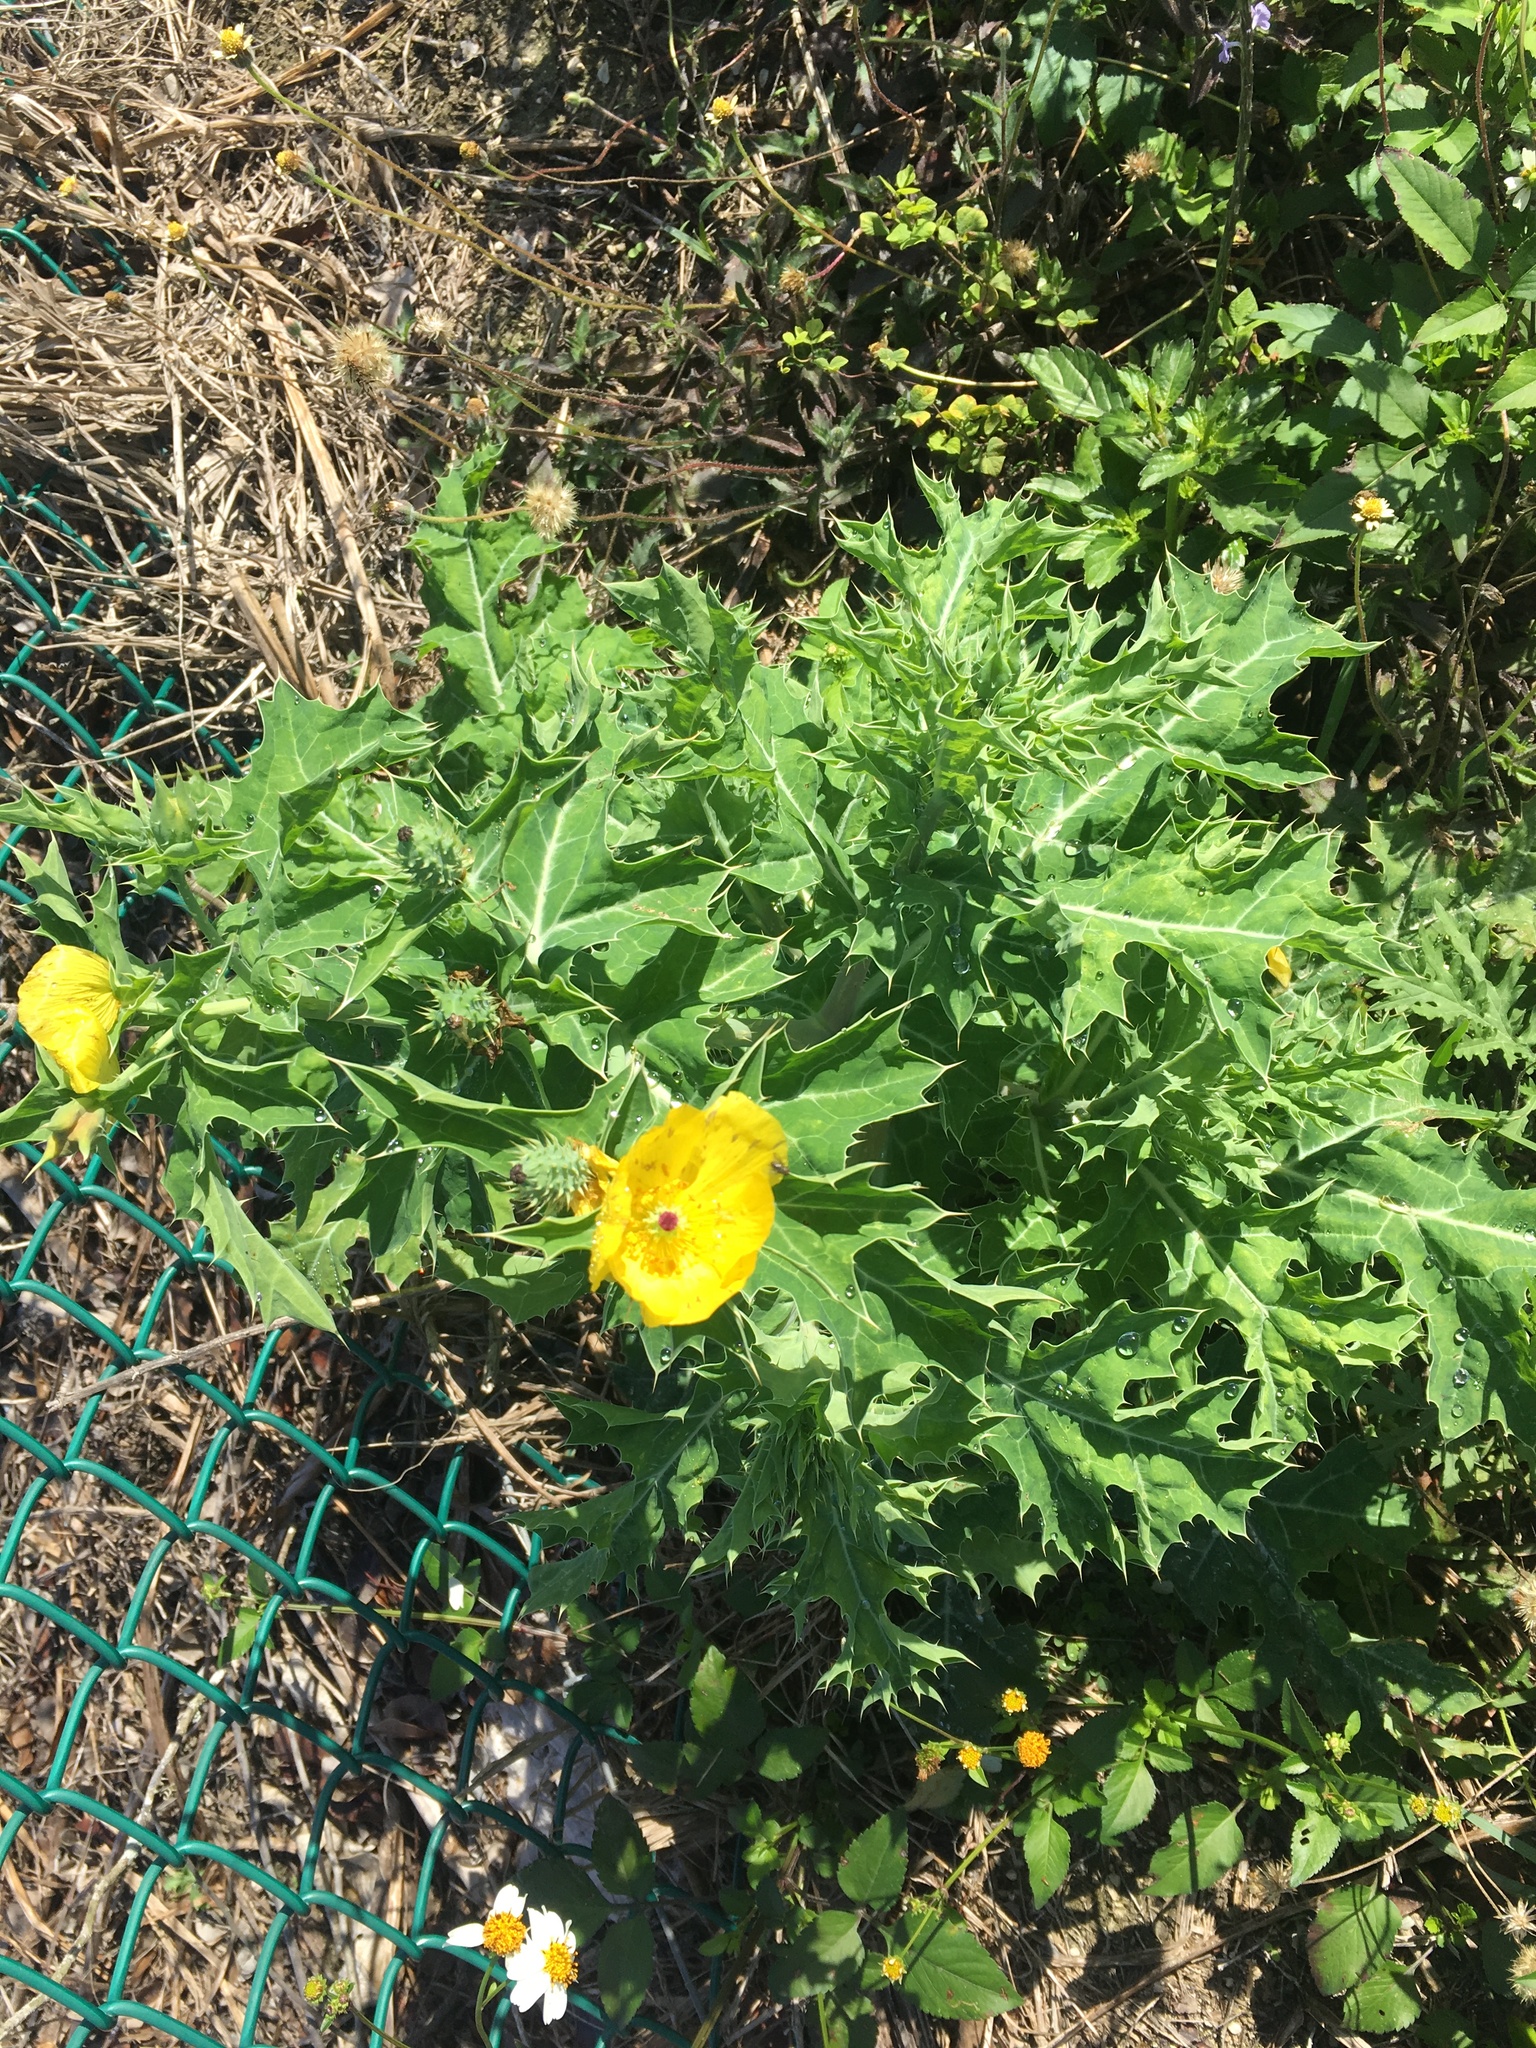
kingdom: Plantae
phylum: Tracheophyta
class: Magnoliopsida
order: Ranunculales
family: Papaveraceae
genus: Argemone
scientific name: Argemone mexicana
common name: Mexican poppy
